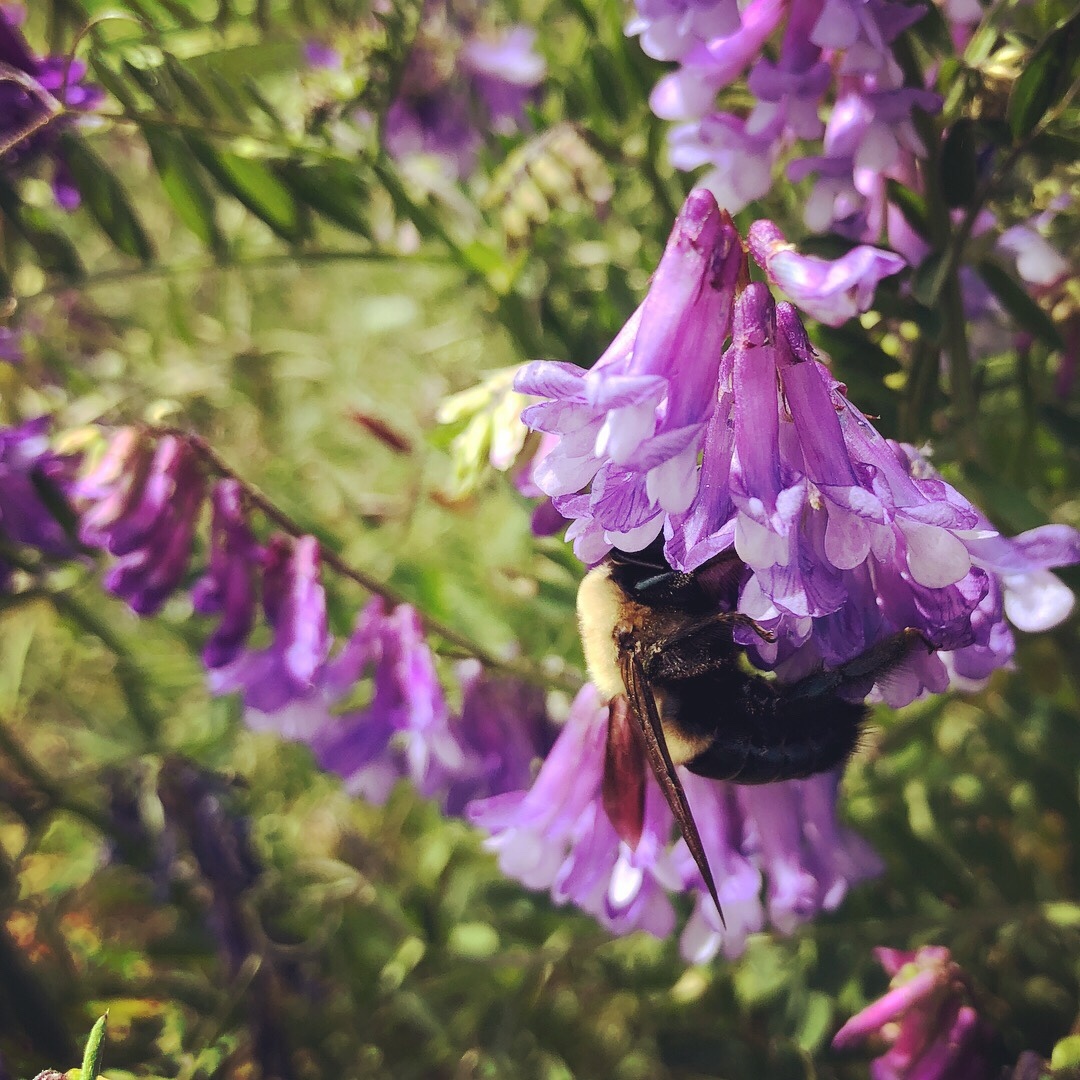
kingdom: Animalia
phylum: Arthropoda
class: Insecta
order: Hymenoptera
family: Apidae
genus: Xylocopa
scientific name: Xylocopa virginica
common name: Carpenter bee
